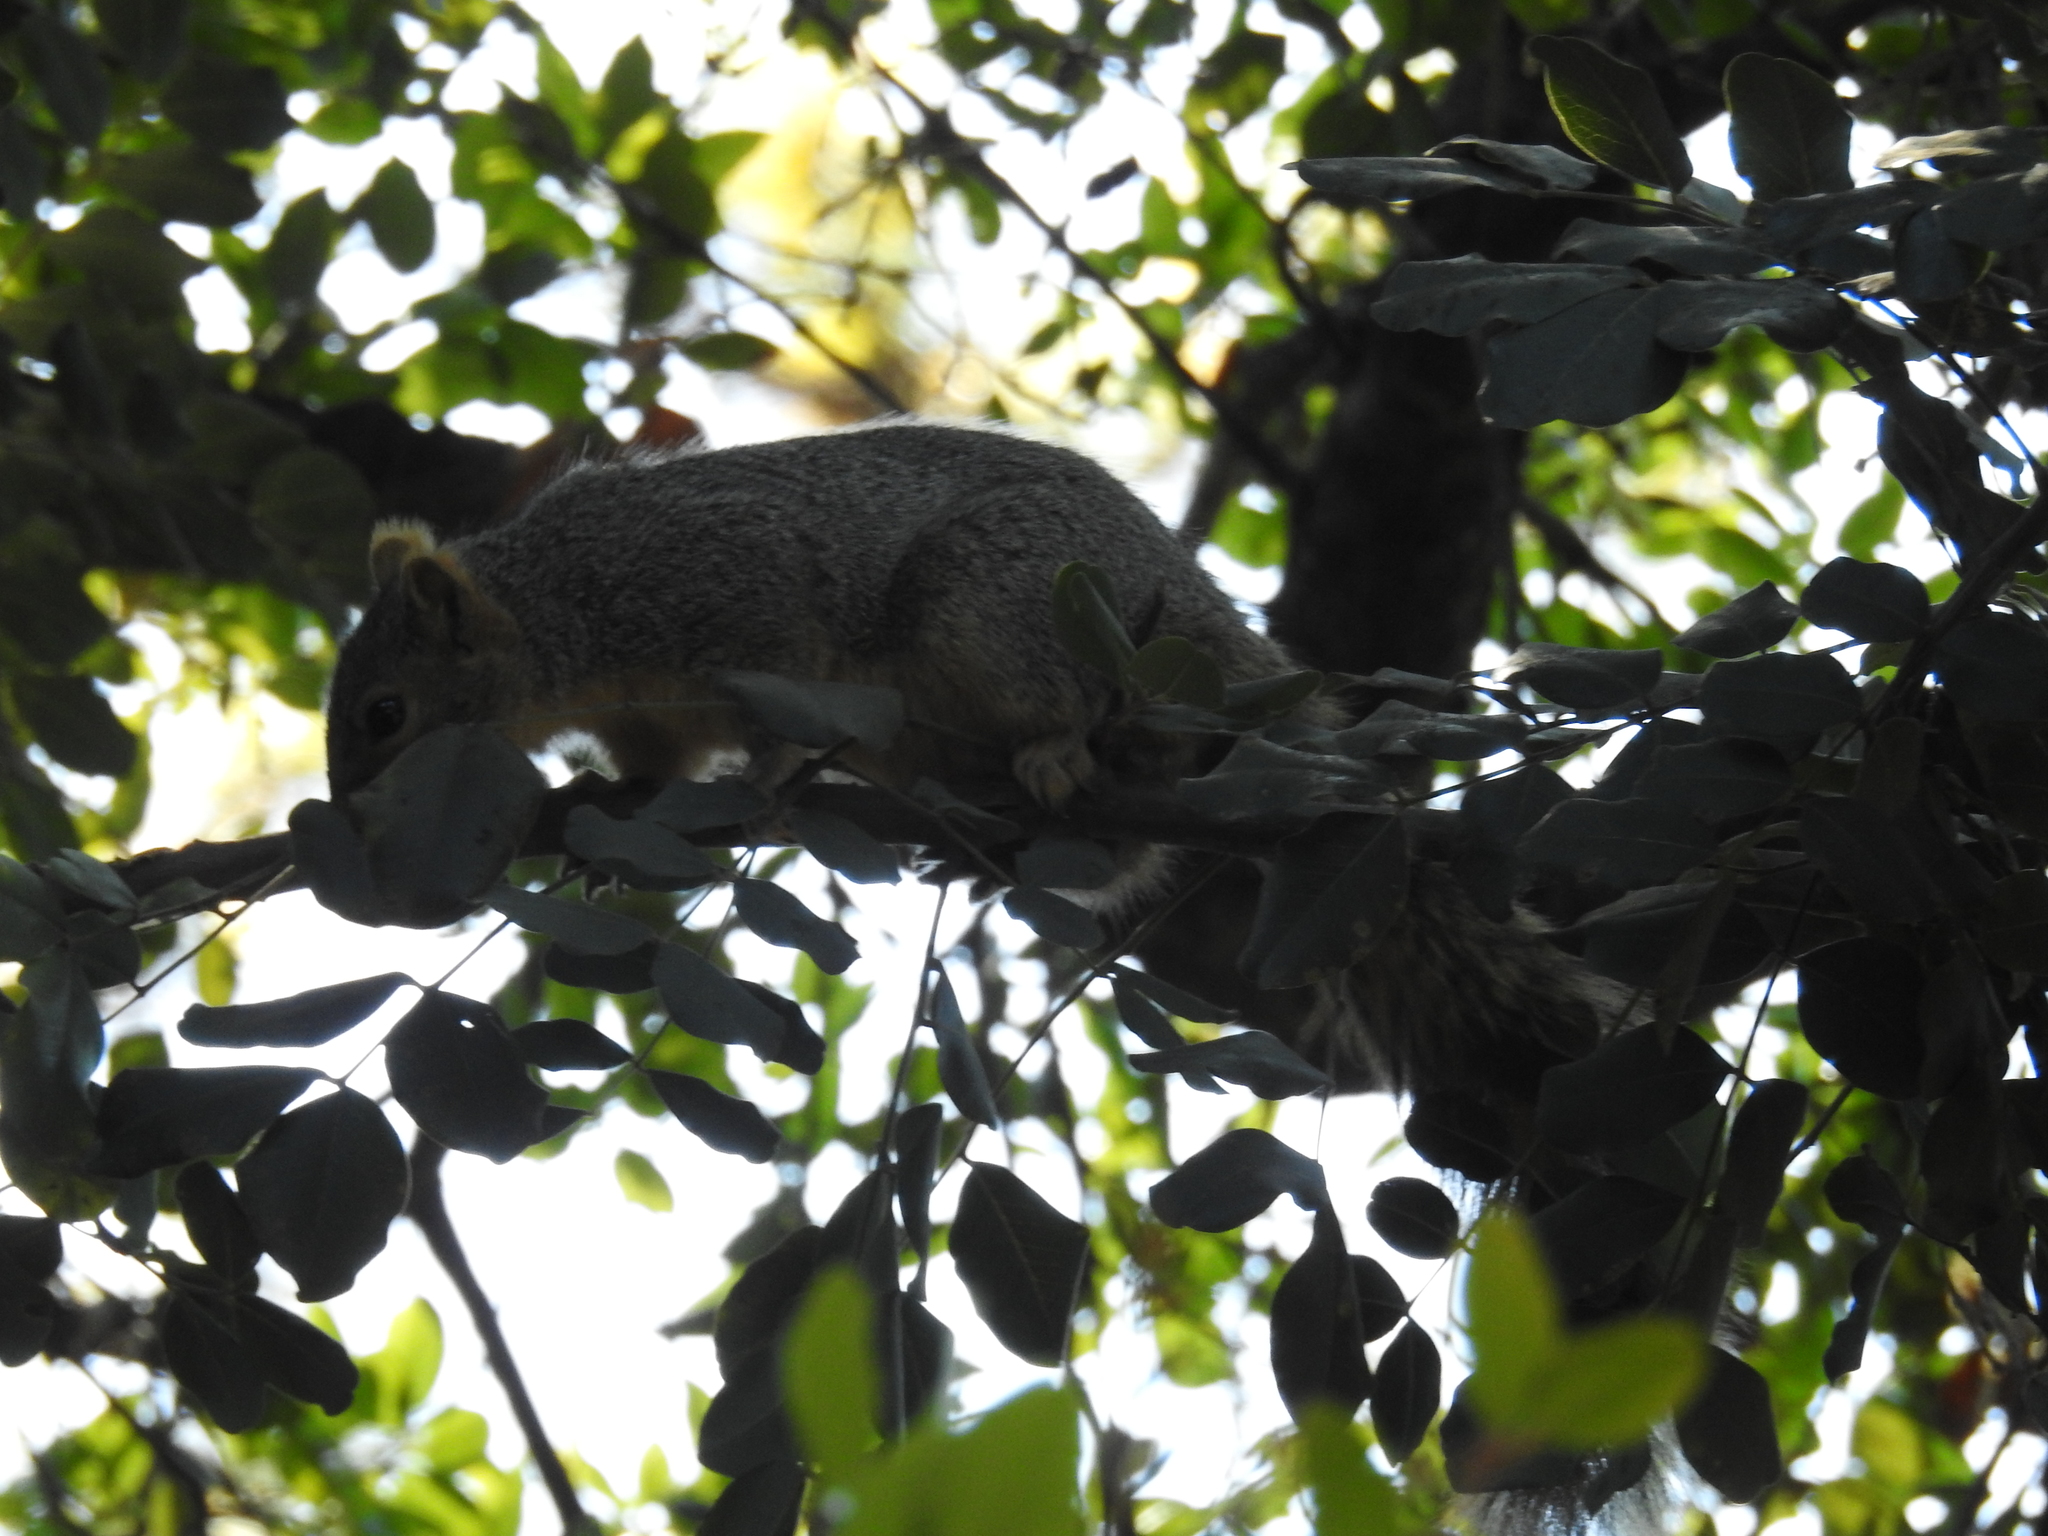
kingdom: Animalia
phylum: Chordata
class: Mammalia
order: Rodentia
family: Sciuridae
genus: Sciurus
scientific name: Sciurus niger
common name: Fox squirrel
